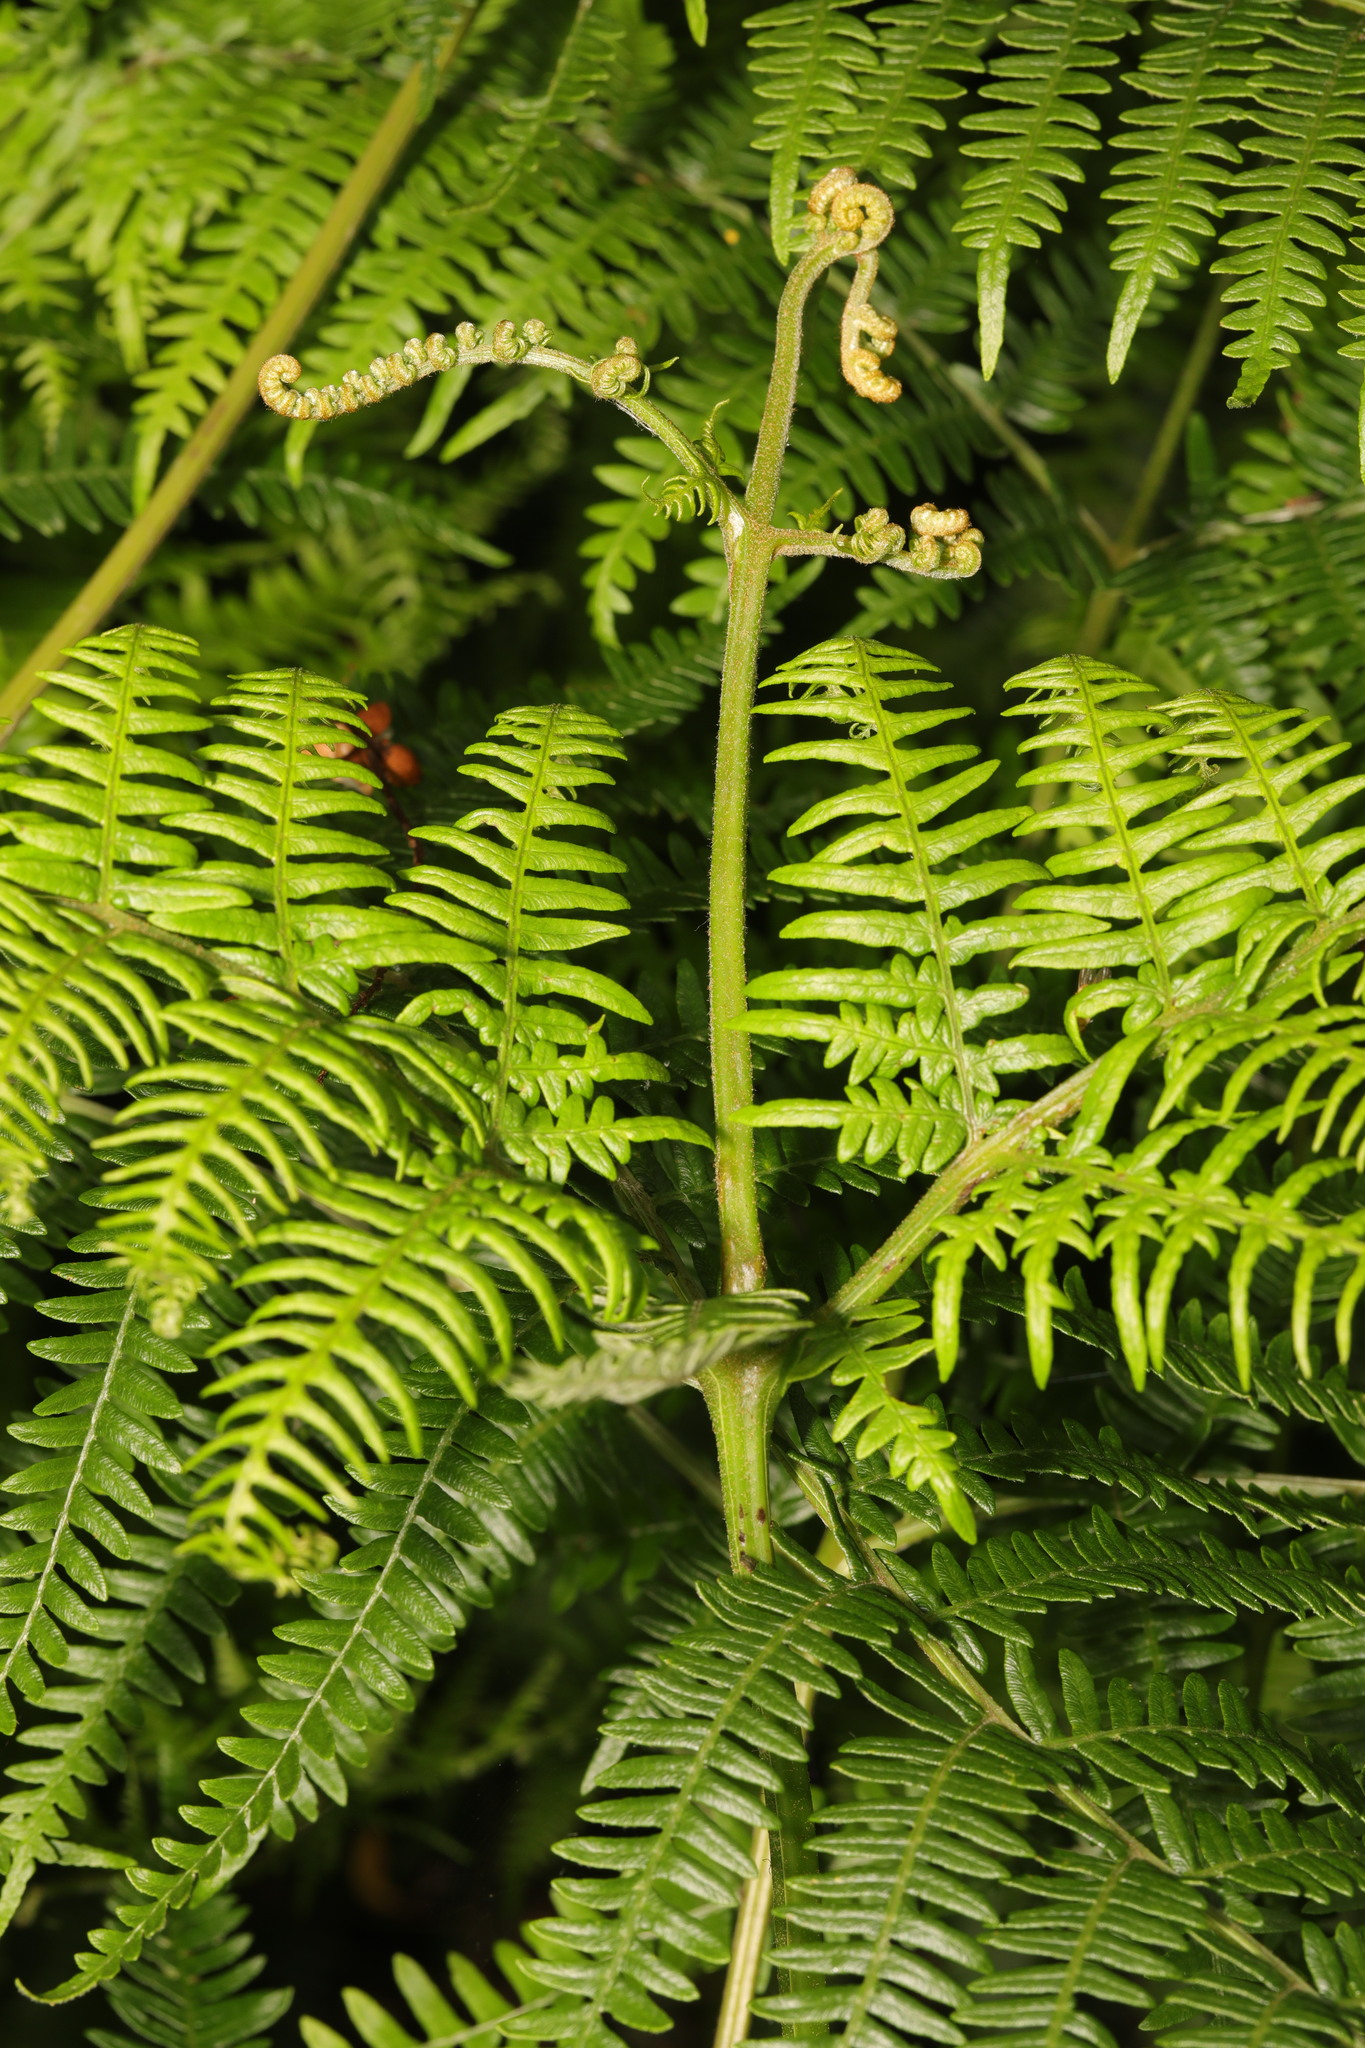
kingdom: Plantae
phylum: Tracheophyta
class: Polypodiopsida
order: Polypodiales
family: Dennstaedtiaceae
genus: Pteridium
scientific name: Pteridium aquilinum
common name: Bracken
